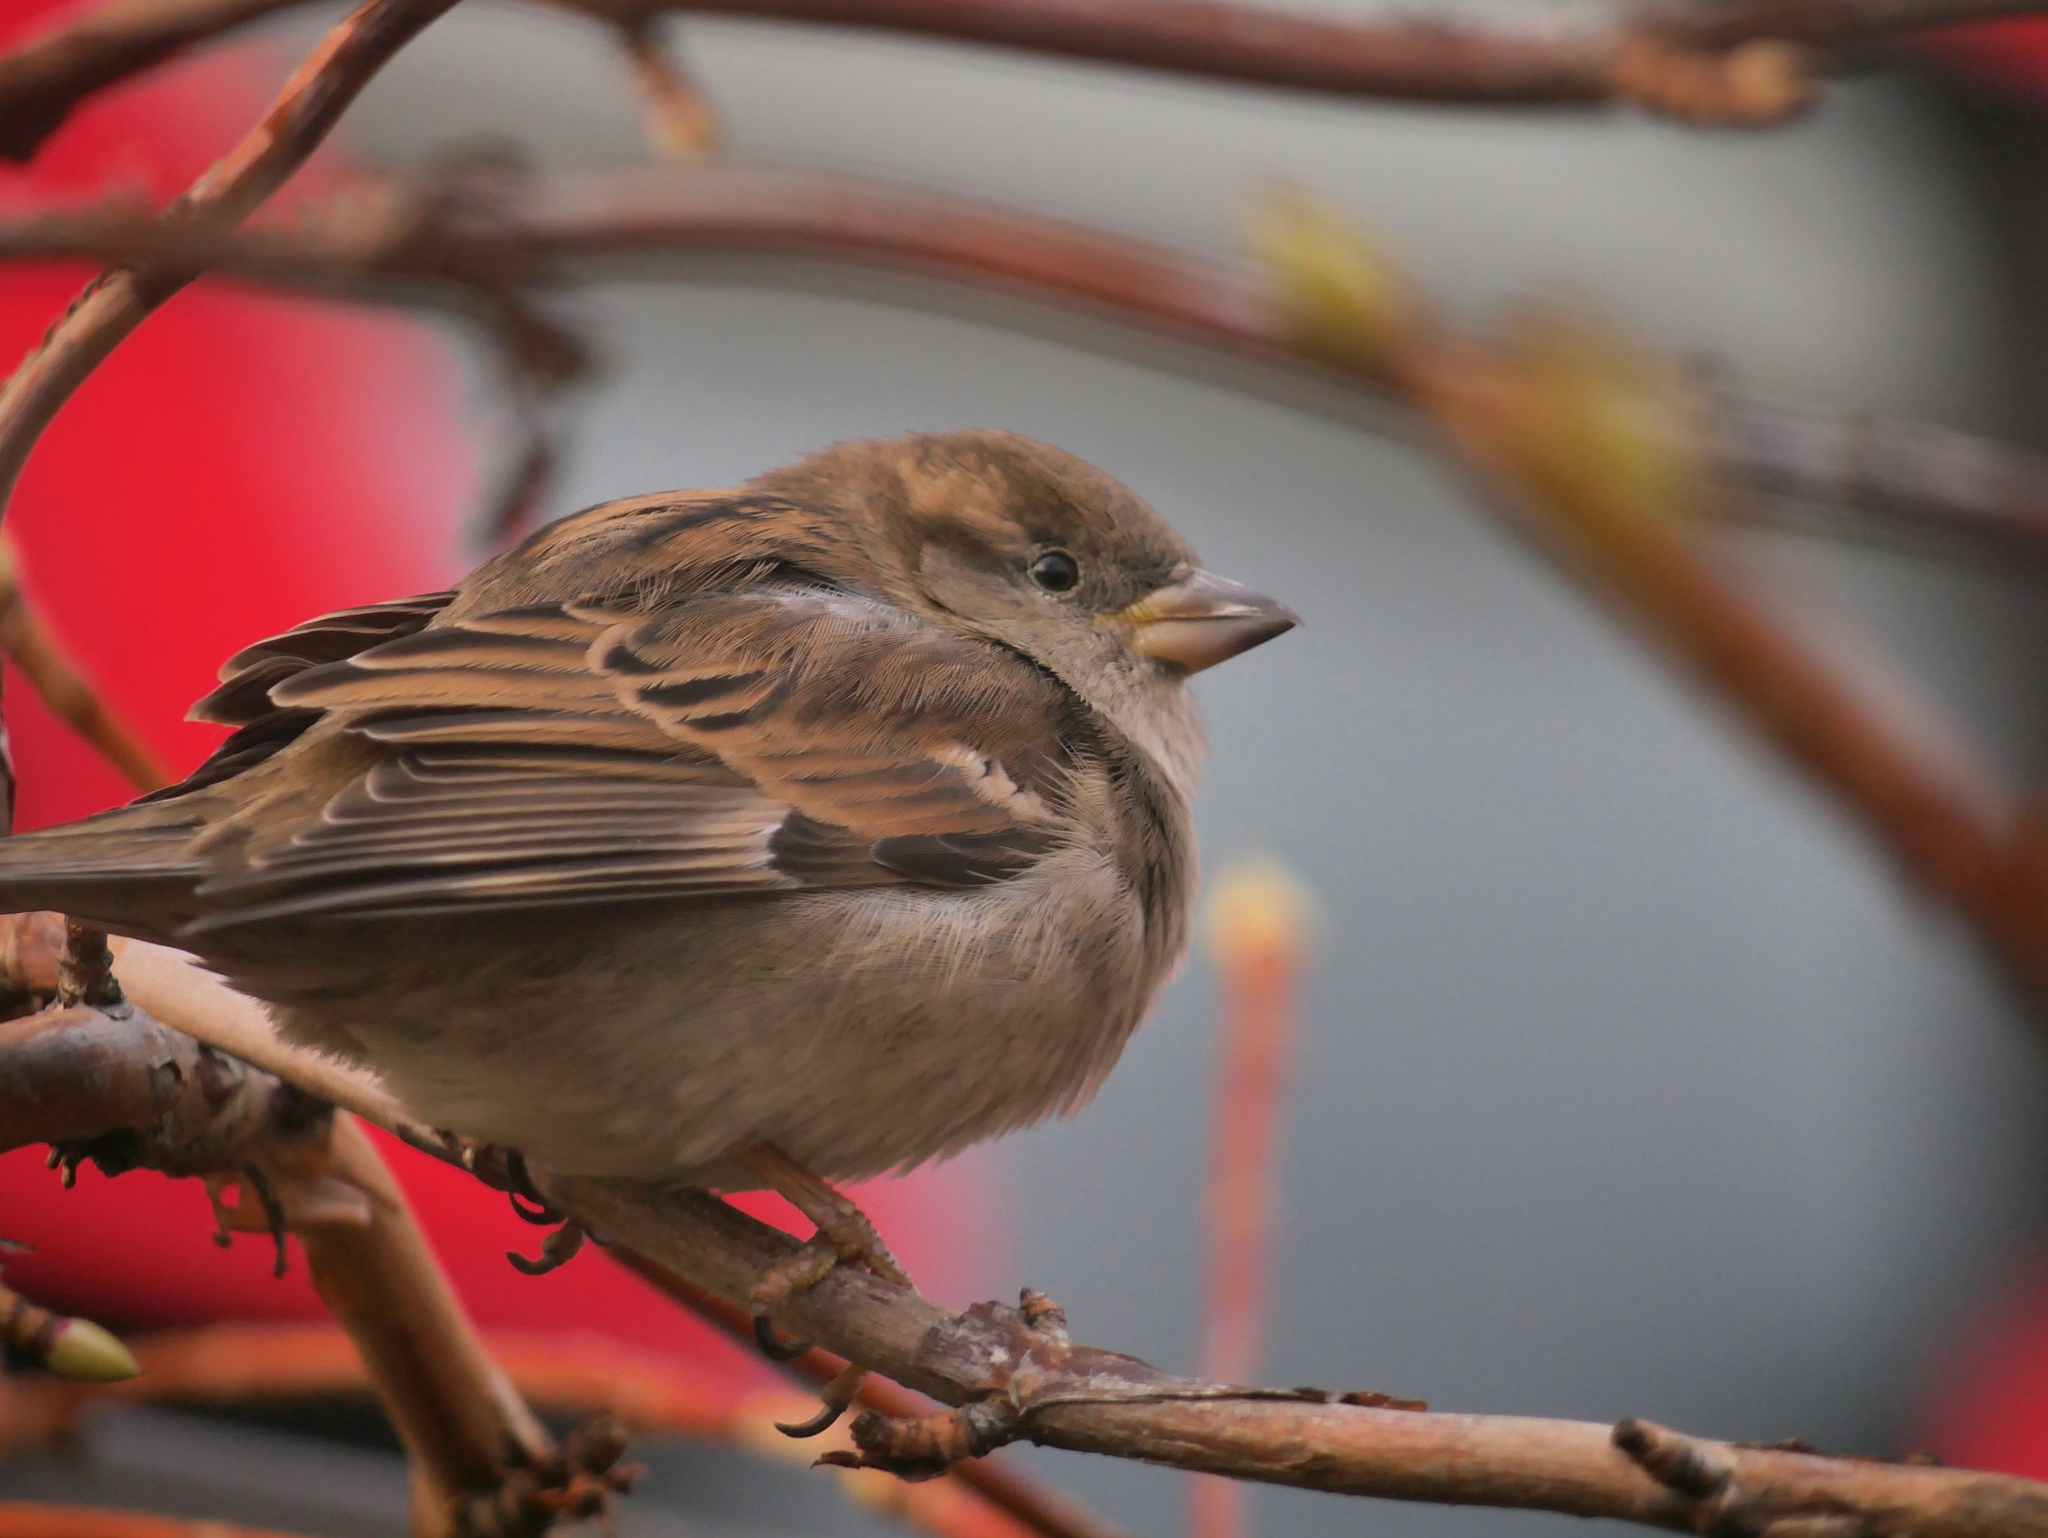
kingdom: Animalia
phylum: Chordata
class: Aves
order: Passeriformes
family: Passeridae
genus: Passer
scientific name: Passer domesticus
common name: House sparrow
